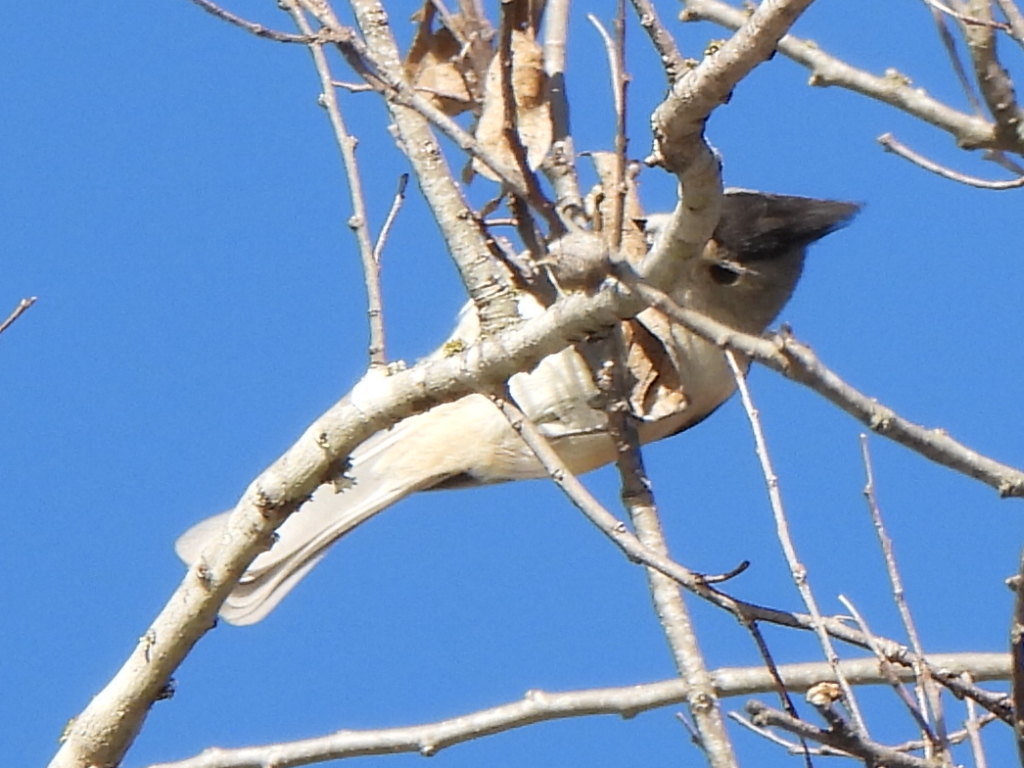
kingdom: Animalia
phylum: Chordata
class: Aves
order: Passeriformes
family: Paridae
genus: Baeolophus
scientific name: Baeolophus atricristatus
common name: Black-crested titmouse
